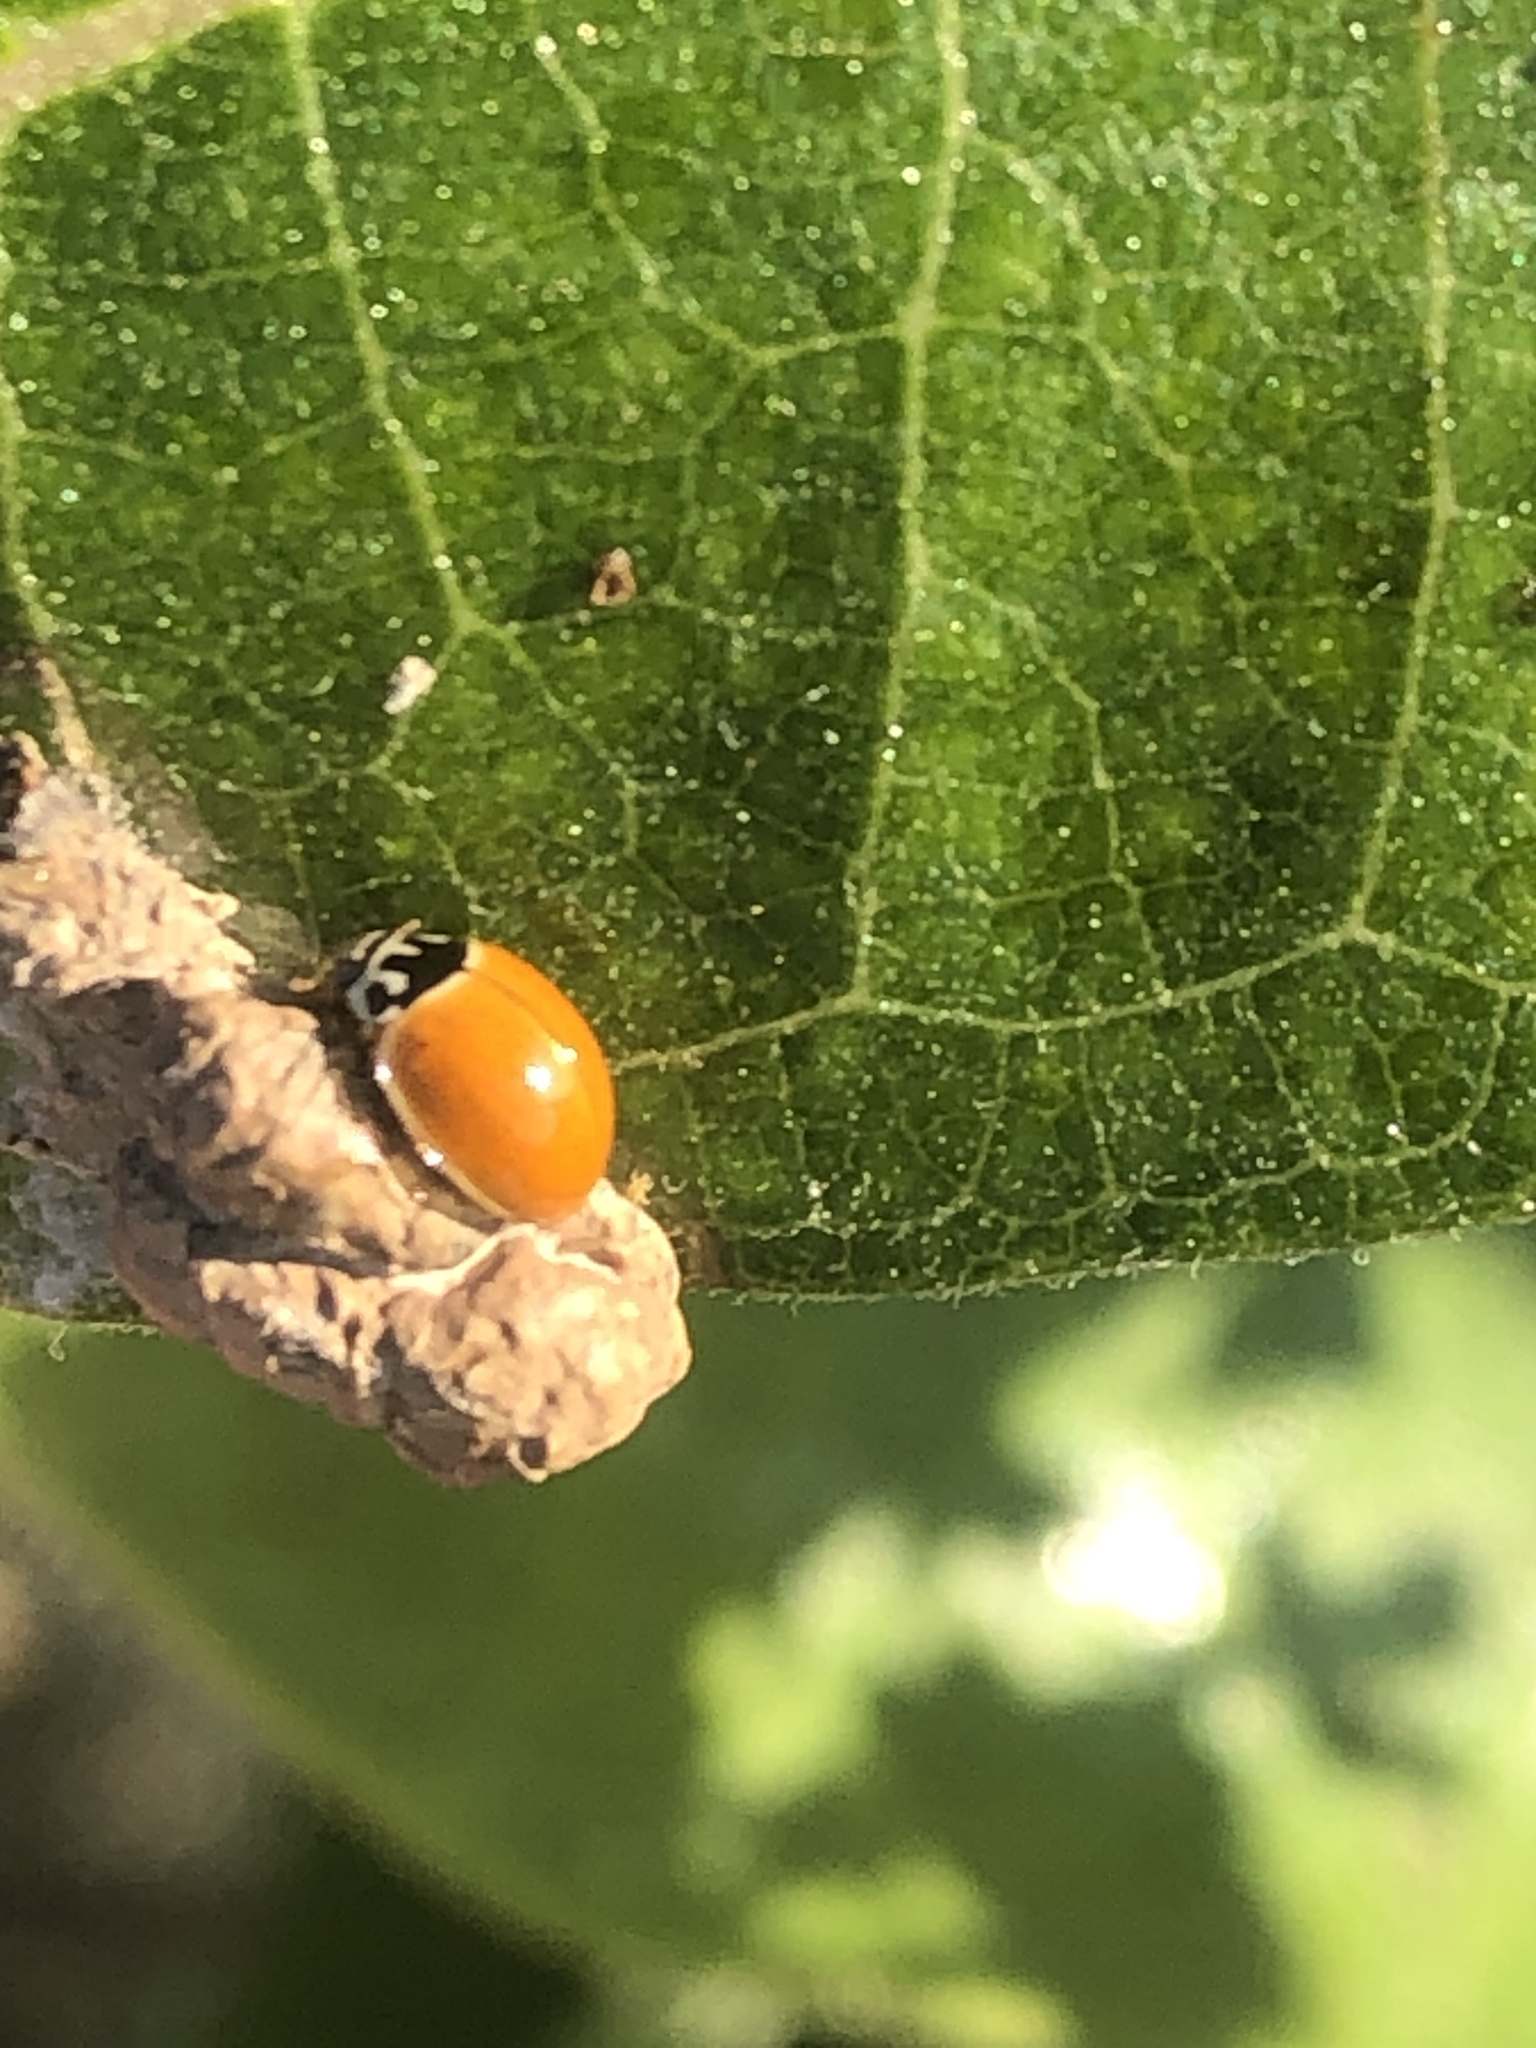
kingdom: Animalia
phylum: Arthropoda
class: Insecta
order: Coleoptera
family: Coccinellidae
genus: Cycloneda
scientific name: Cycloneda munda
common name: Polished lady beetle
